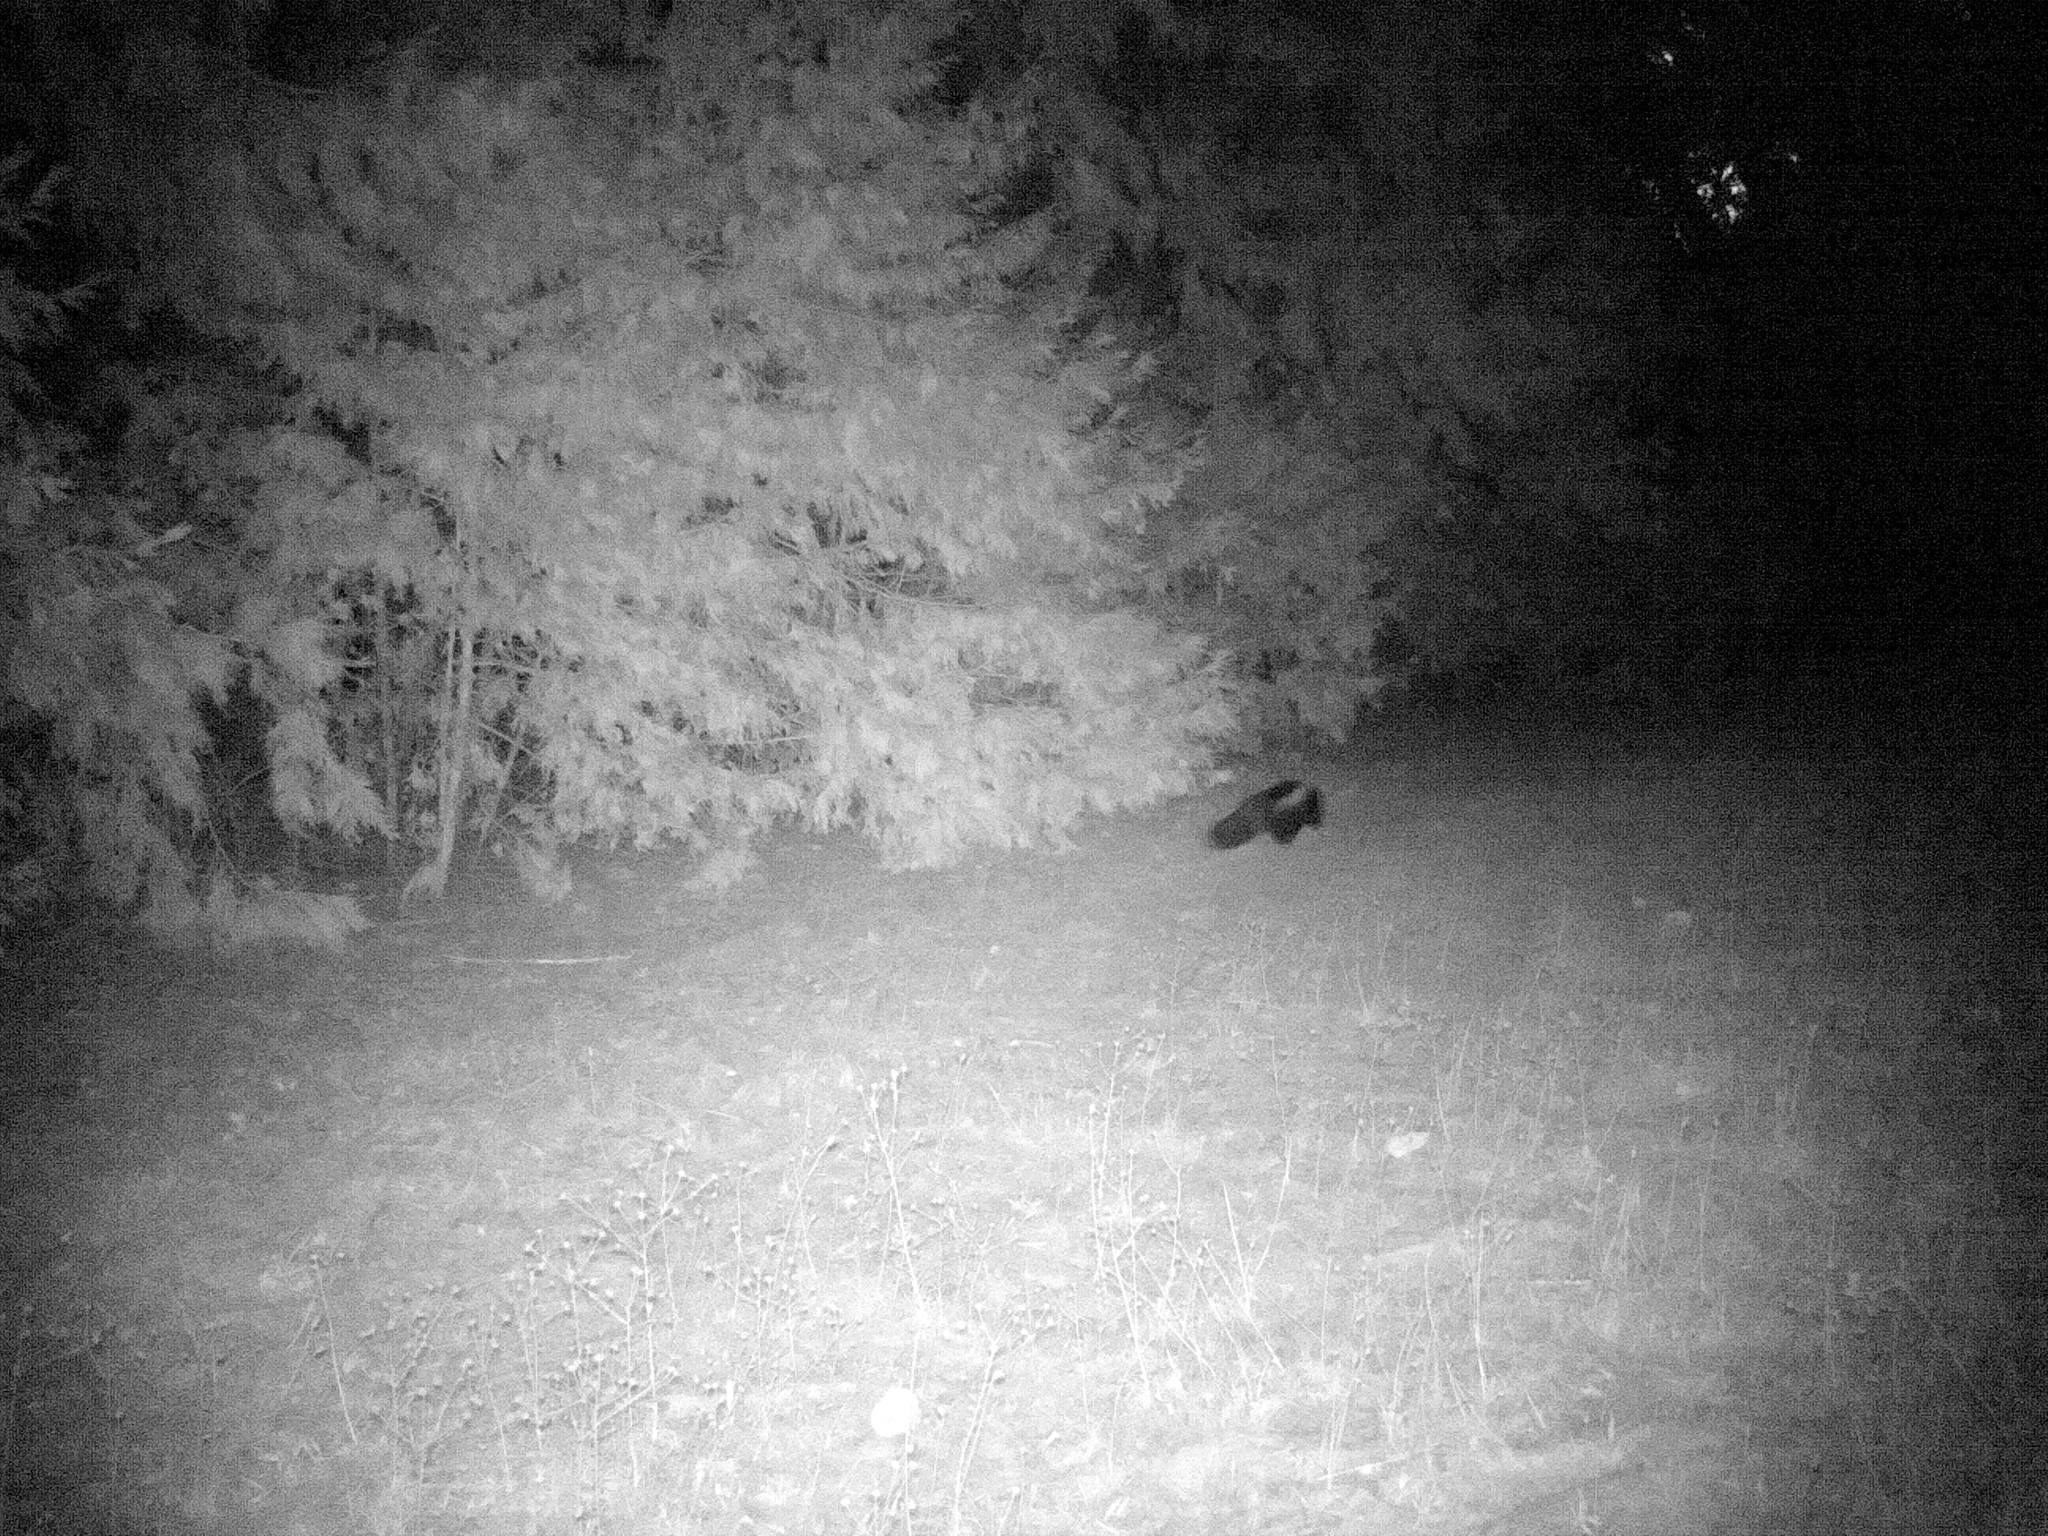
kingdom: Animalia
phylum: Chordata
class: Mammalia
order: Carnivora
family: Mephitidae
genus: Mephitis
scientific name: Mephitis mephitis
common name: Striped skunk
